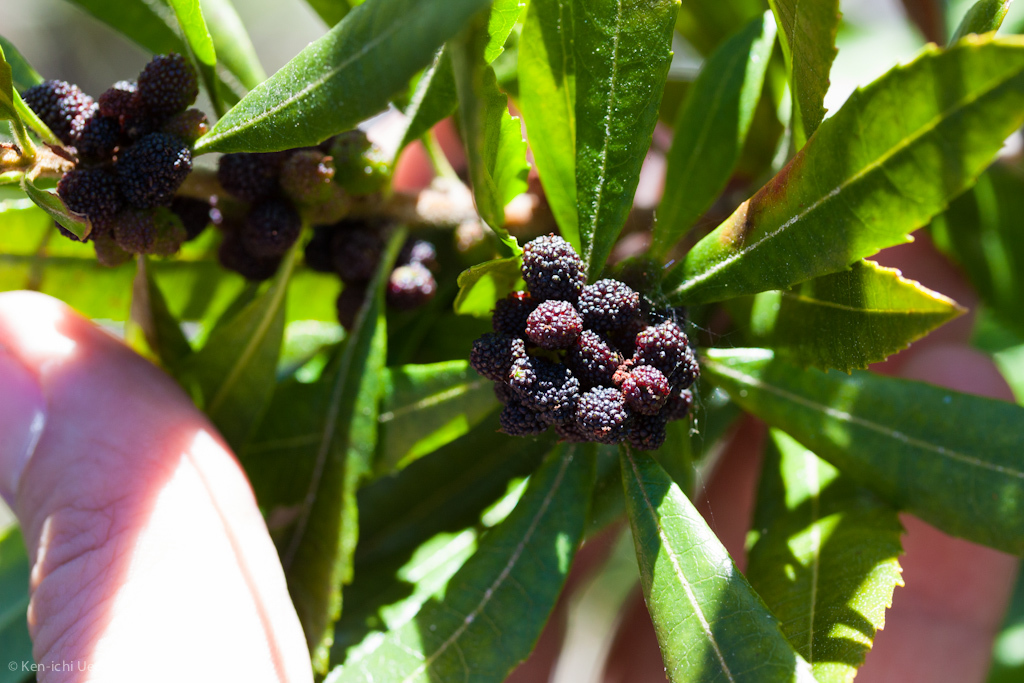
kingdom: Plantae
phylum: Tracheophyta
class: Magnoliopsida
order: Fagales
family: Myricaceae
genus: Morella
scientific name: Morella californica
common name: California wax-myrtle
